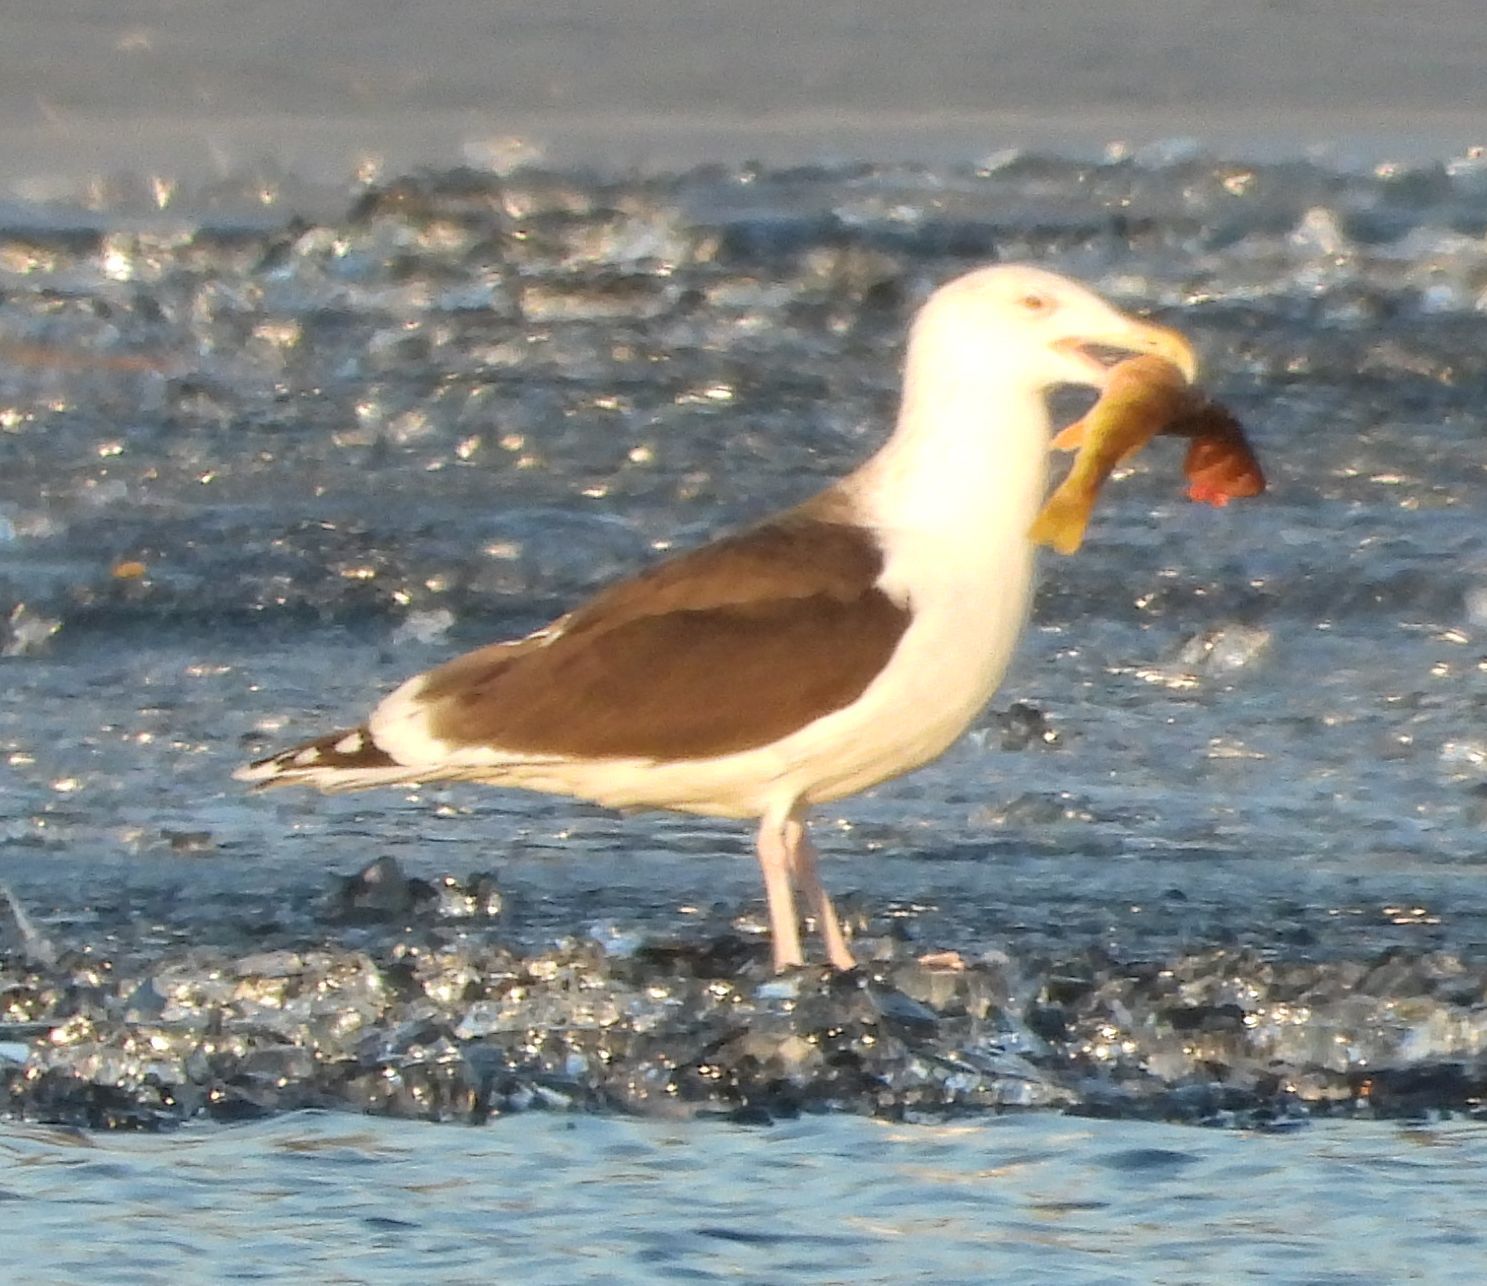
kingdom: Animalia
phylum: Chordata
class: Aves
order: Charadriiformes
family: Laridae
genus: Larus
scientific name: Larus marinus
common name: Great black-backed gull
